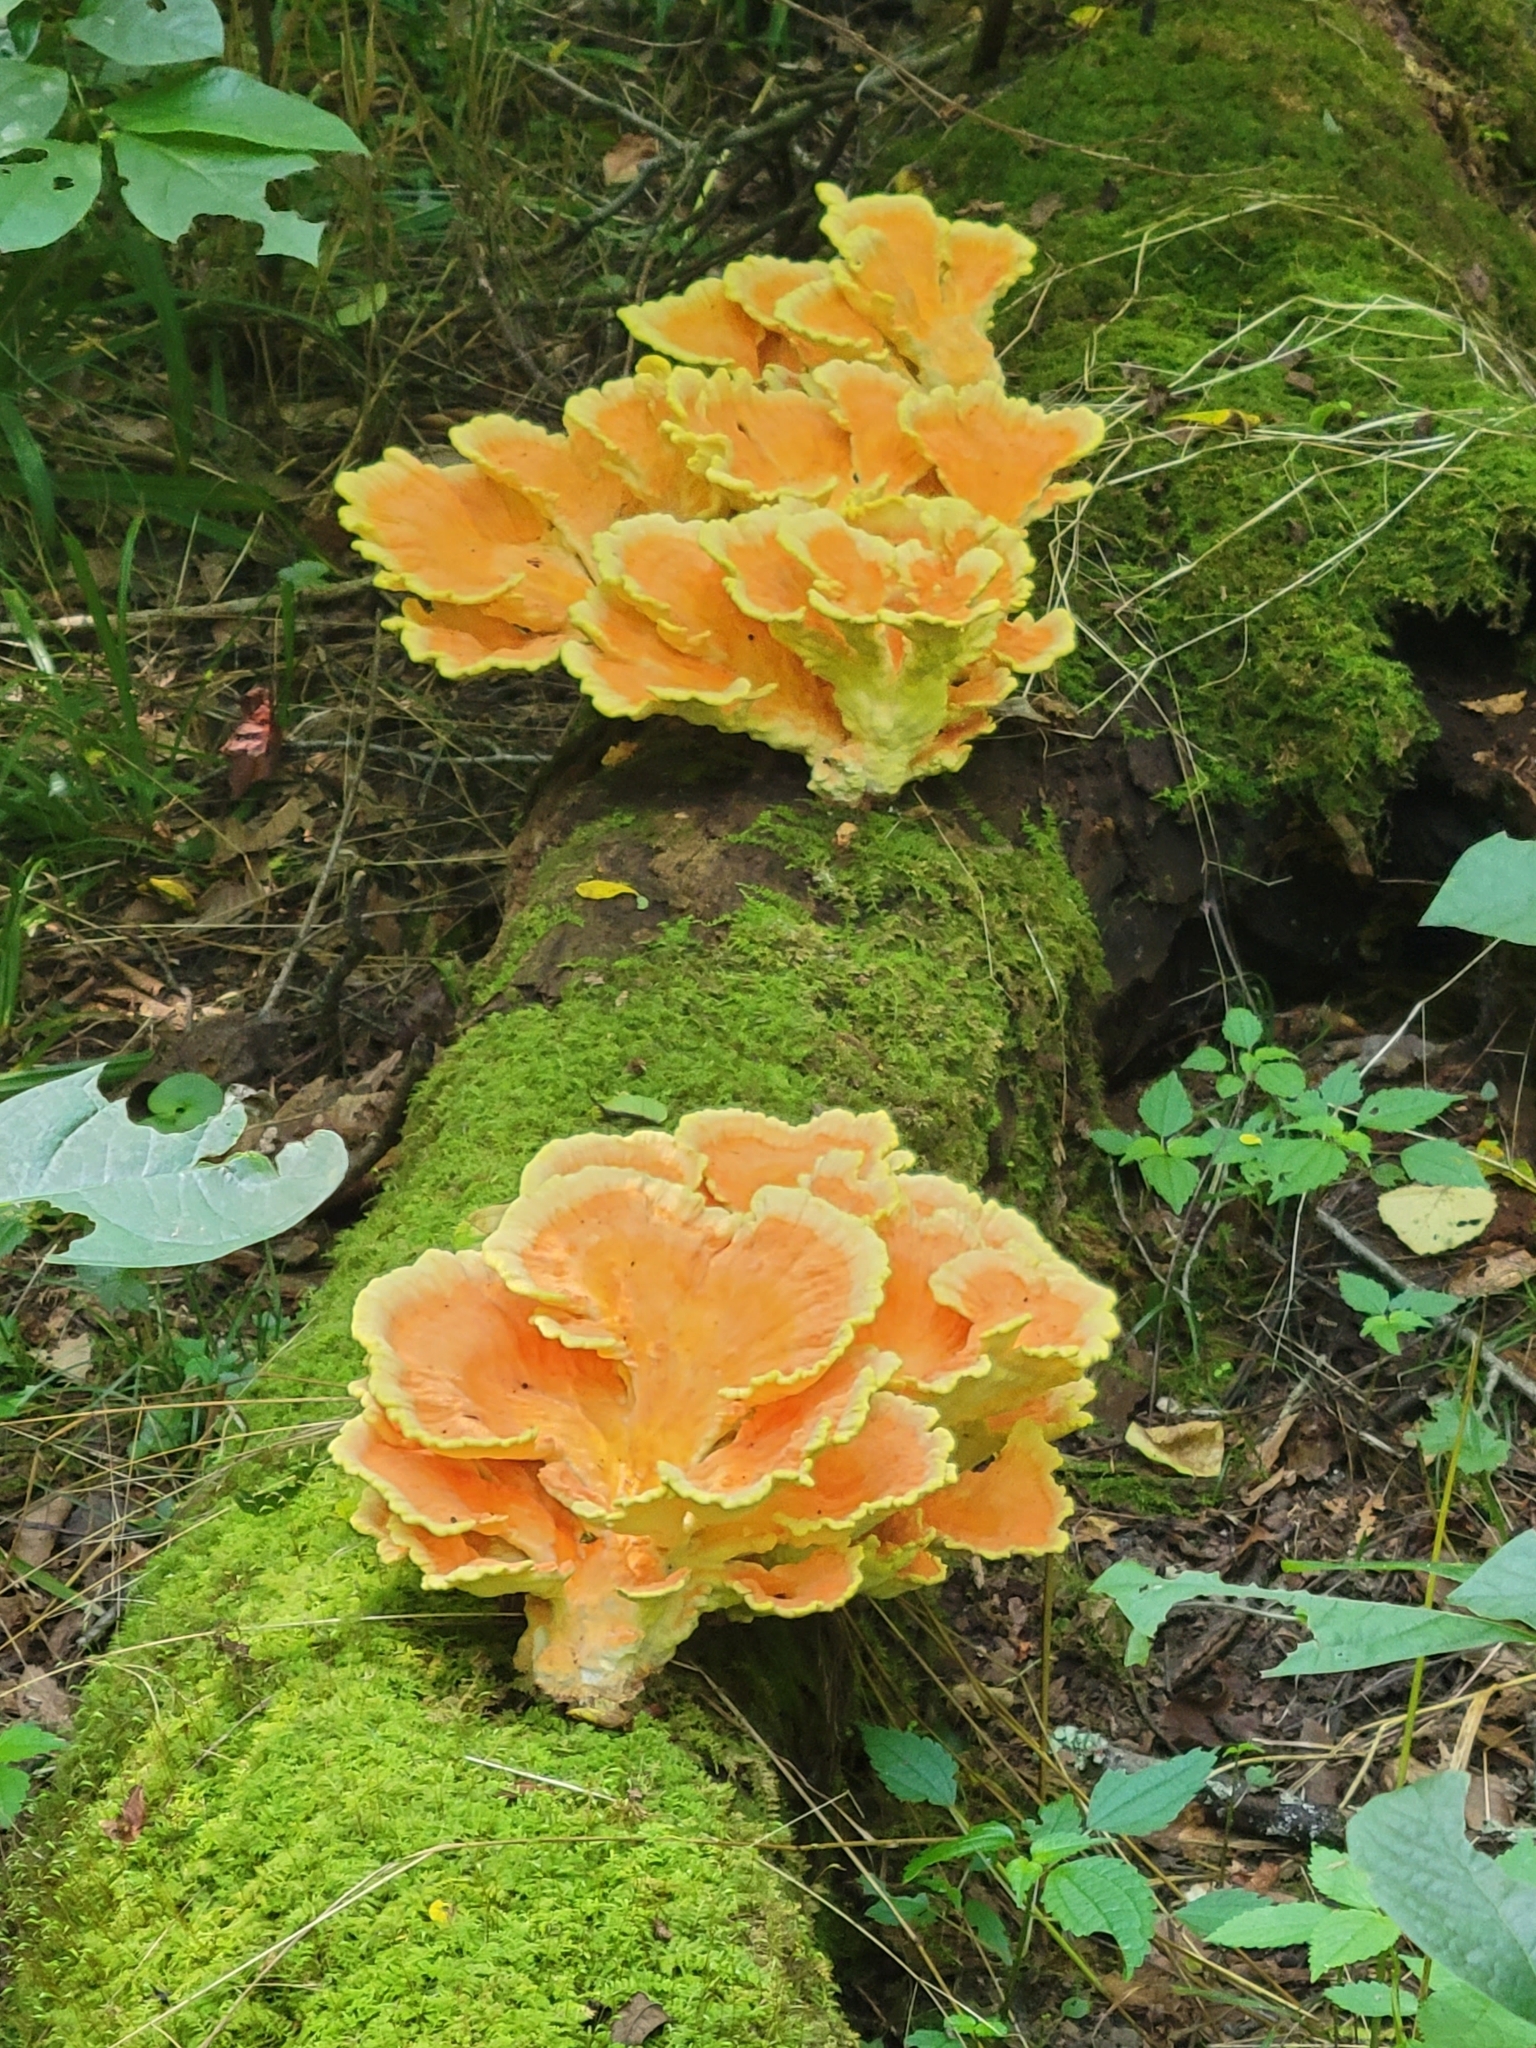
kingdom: Fungi
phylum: Basidiomycota
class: Agaricomycetes
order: Polyporales
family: Laetiporaceae
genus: Laetiporus
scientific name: Laetiporus sulphureus
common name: Chicken of the woods
